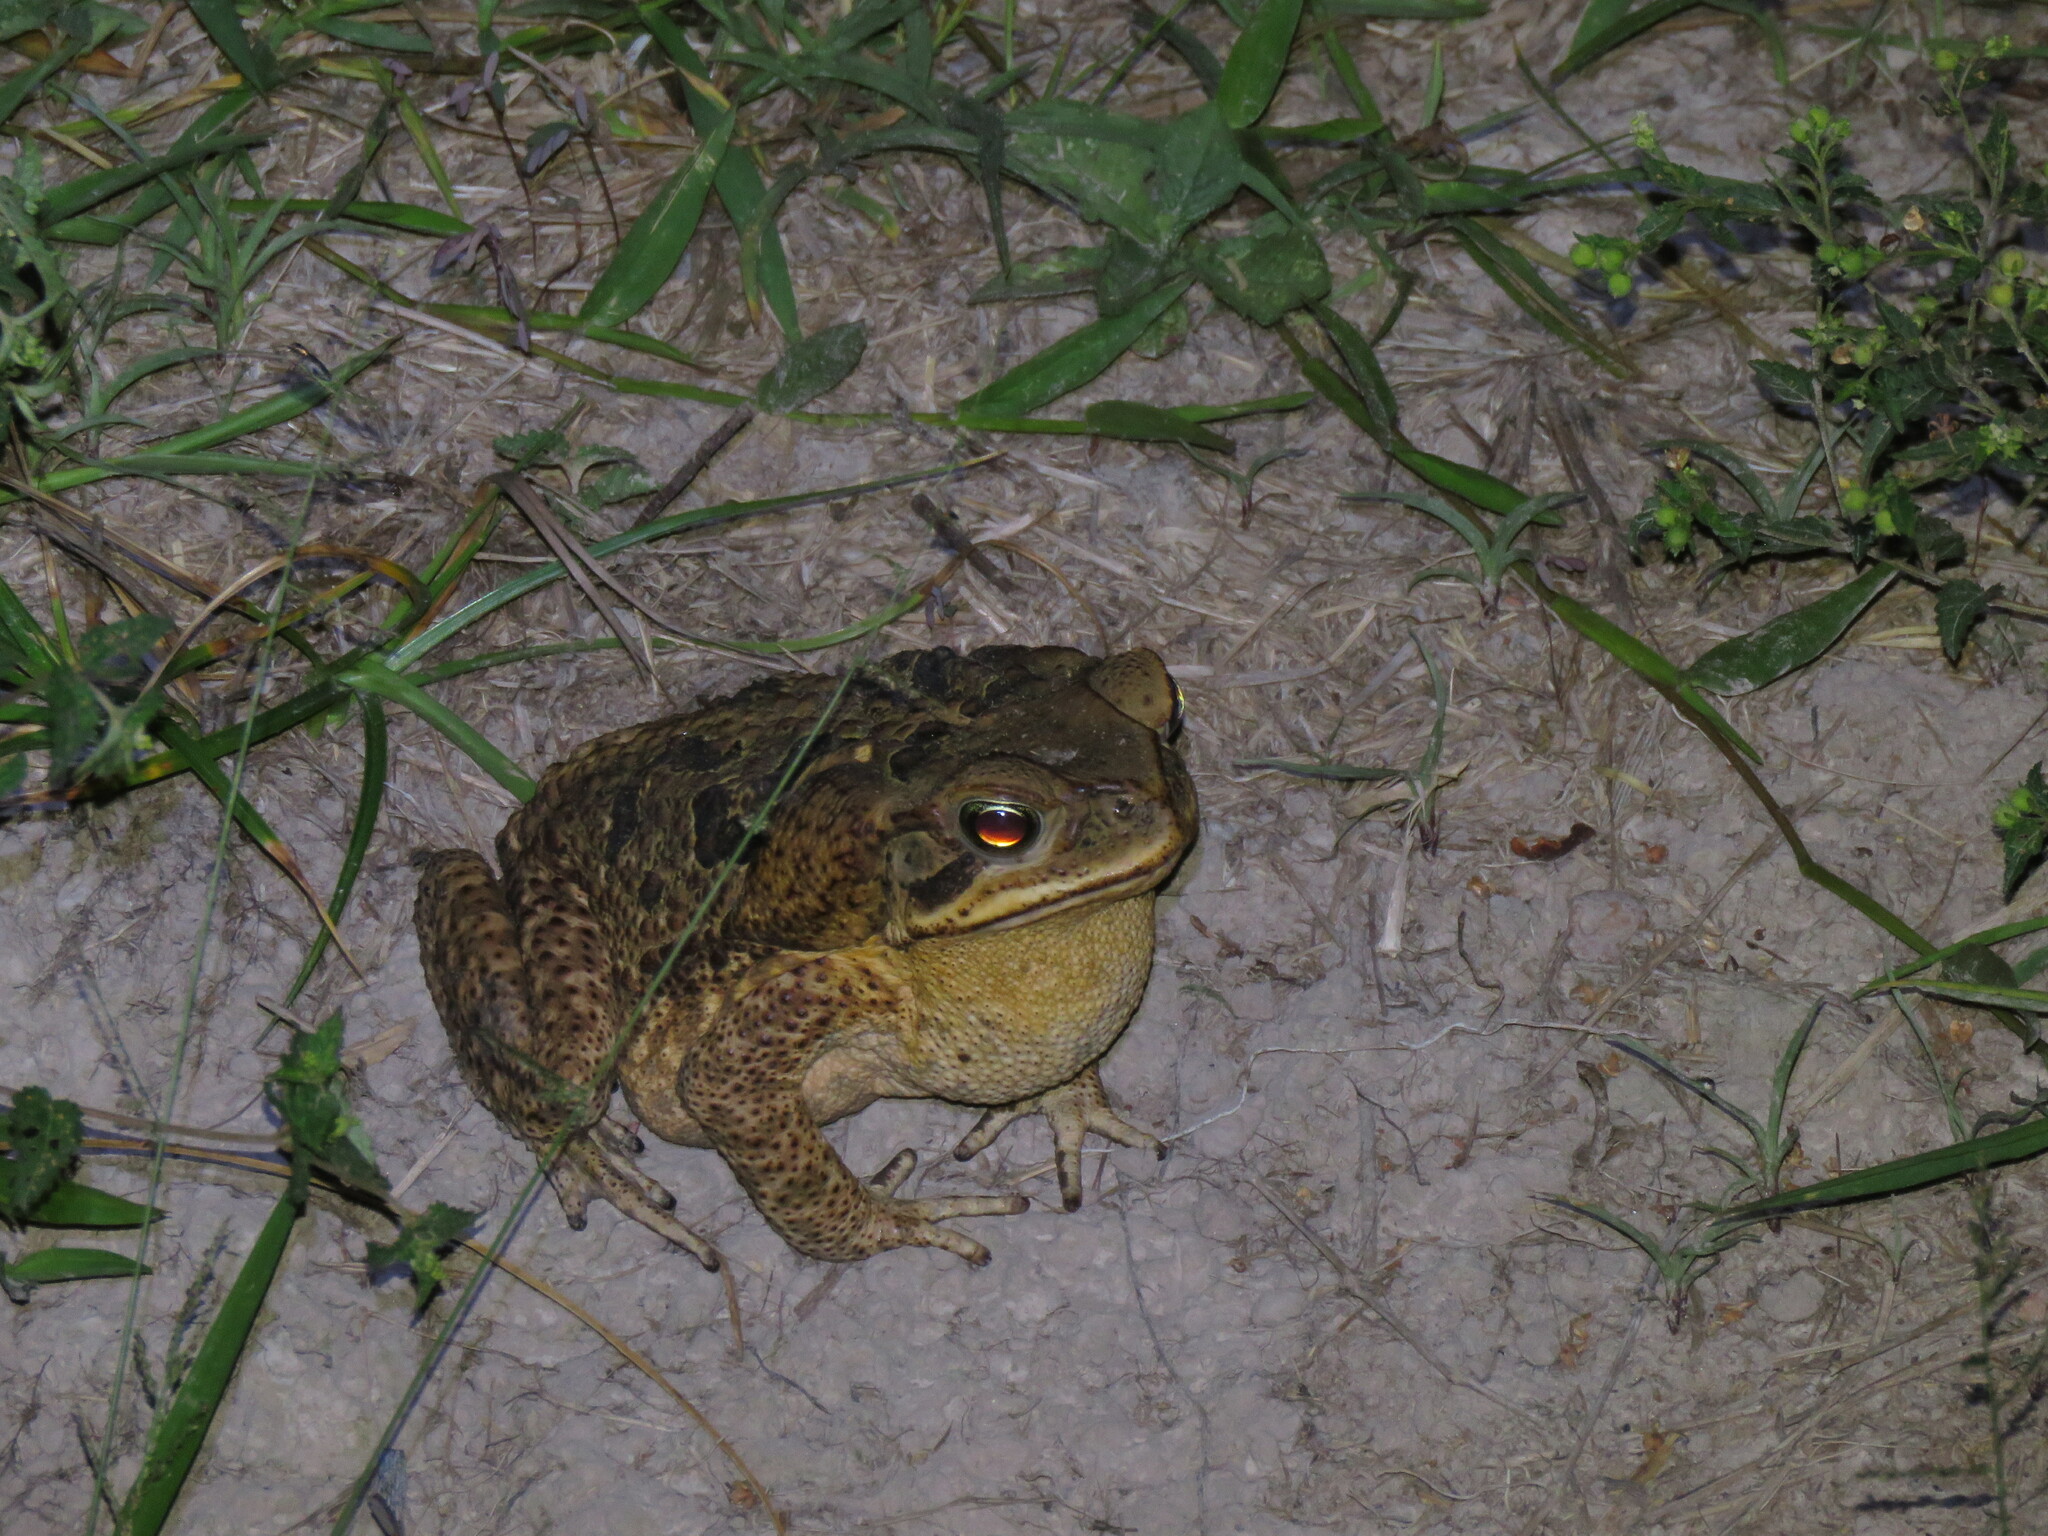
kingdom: Animalia
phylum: Chordata
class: Amphibia
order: Anura
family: Bufonidae
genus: Rhinella
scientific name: Rhinella diptycha
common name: Cope's toad
